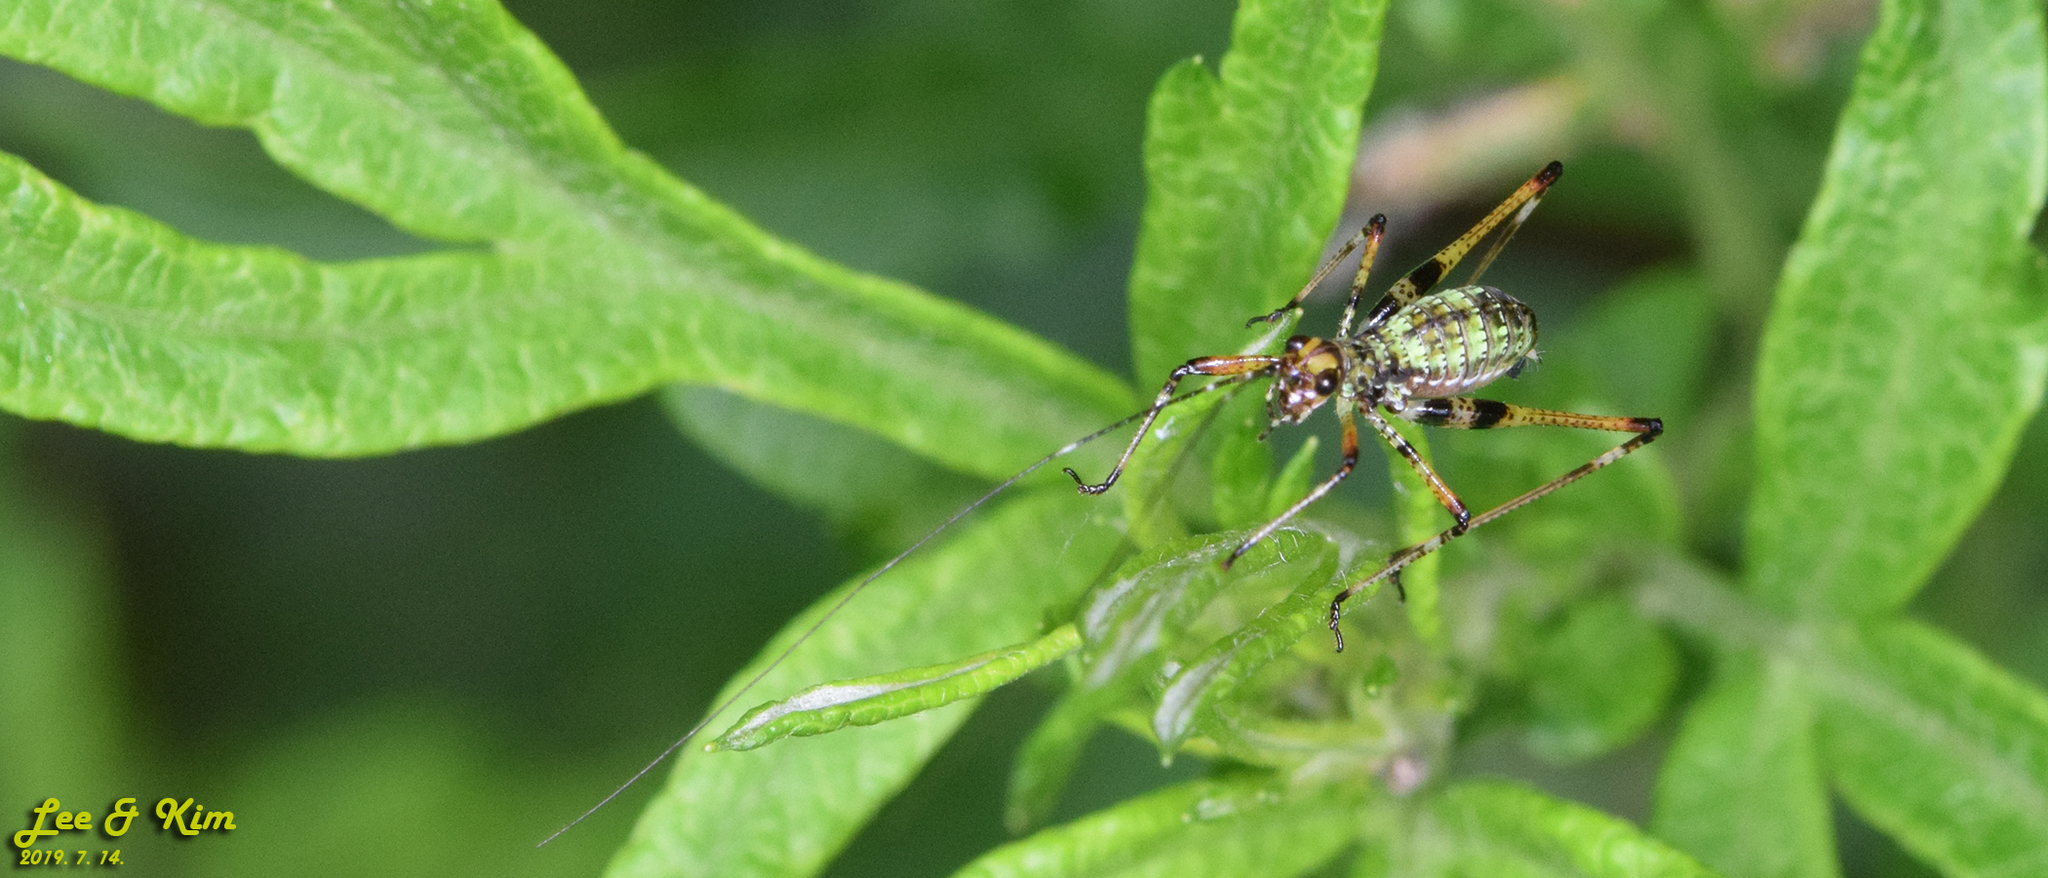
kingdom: Animalia
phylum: Arthropoda
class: Insecta
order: Orthoptera
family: Tettigoniidae
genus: Phaneroptera
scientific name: Phaneroptera nigroantennata
